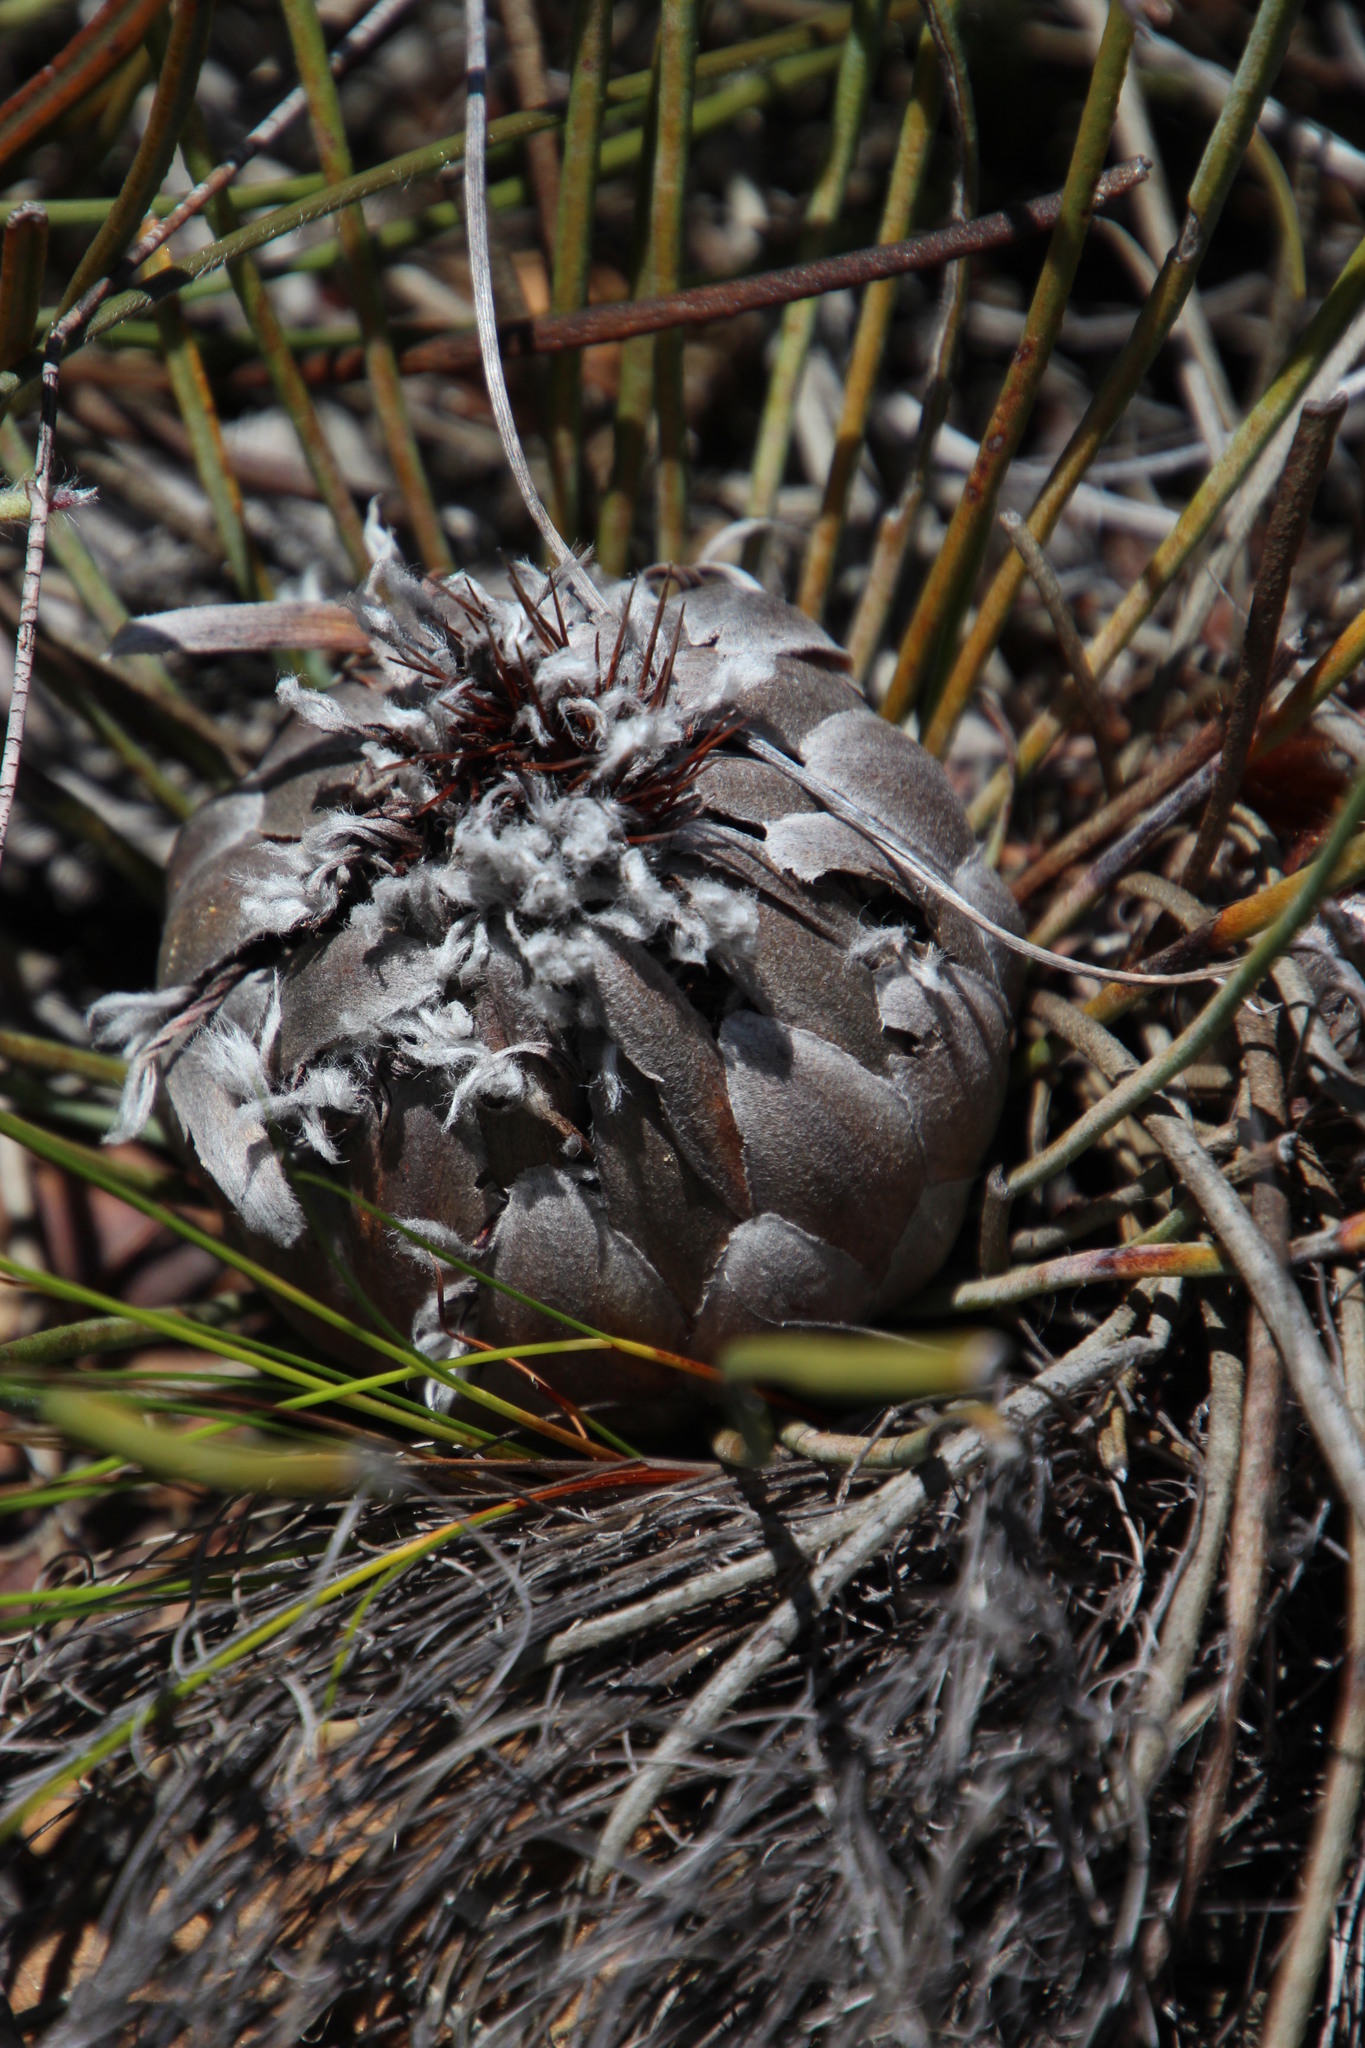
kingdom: Plantae
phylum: Tracheophyta
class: Magnoliopsida
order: Proteales
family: Proteaceae
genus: Protea
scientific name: Protea scorzonerifolia
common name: Channel-leaf sugarbush
